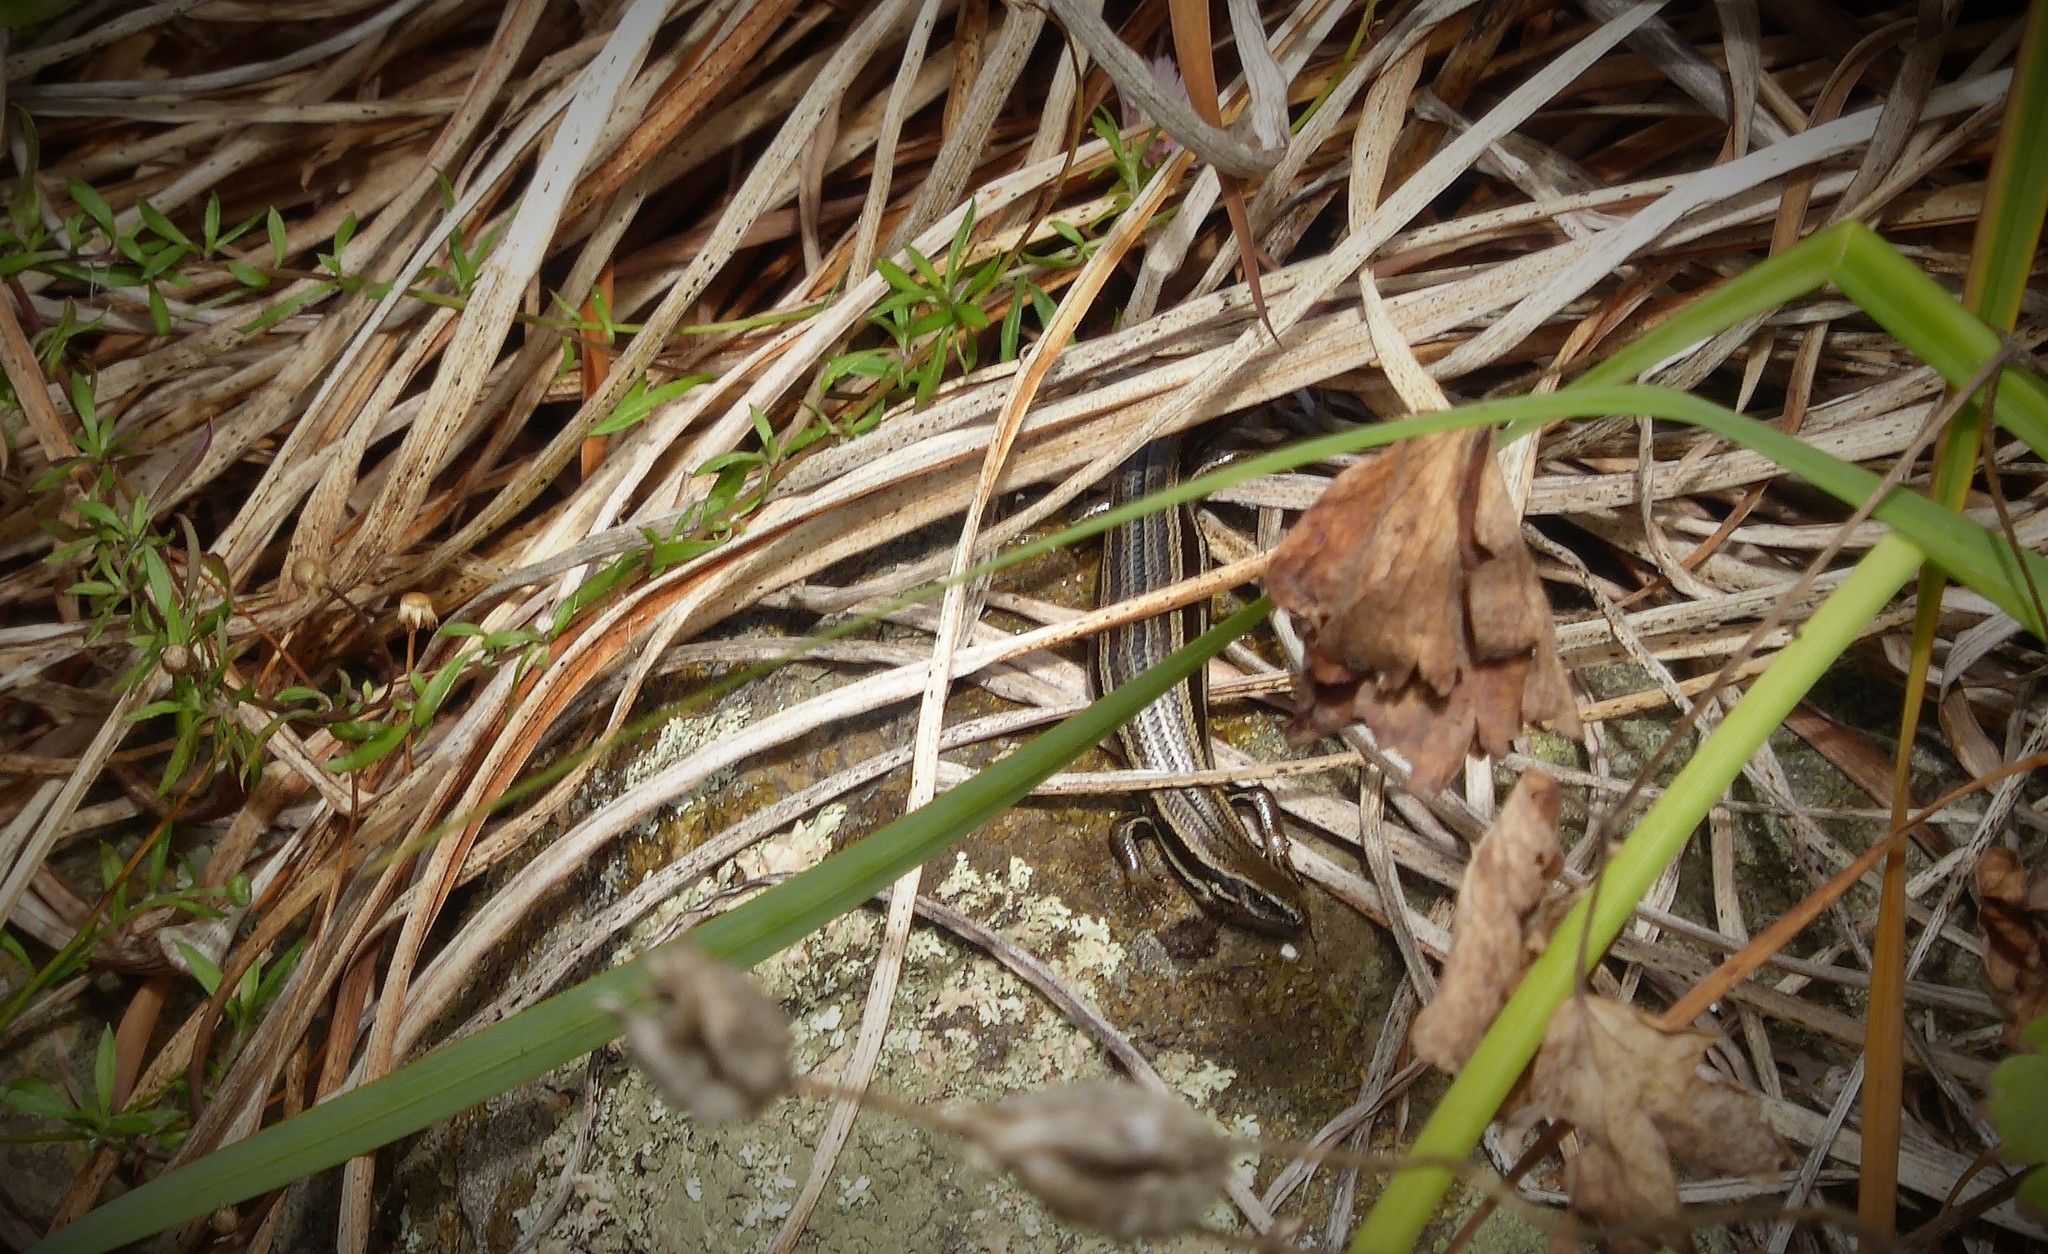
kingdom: Animalia
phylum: Chordata
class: Squamata
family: Scincidae
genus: Oligosoma
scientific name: Oligosoma polychroma
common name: Common new zealand skink
